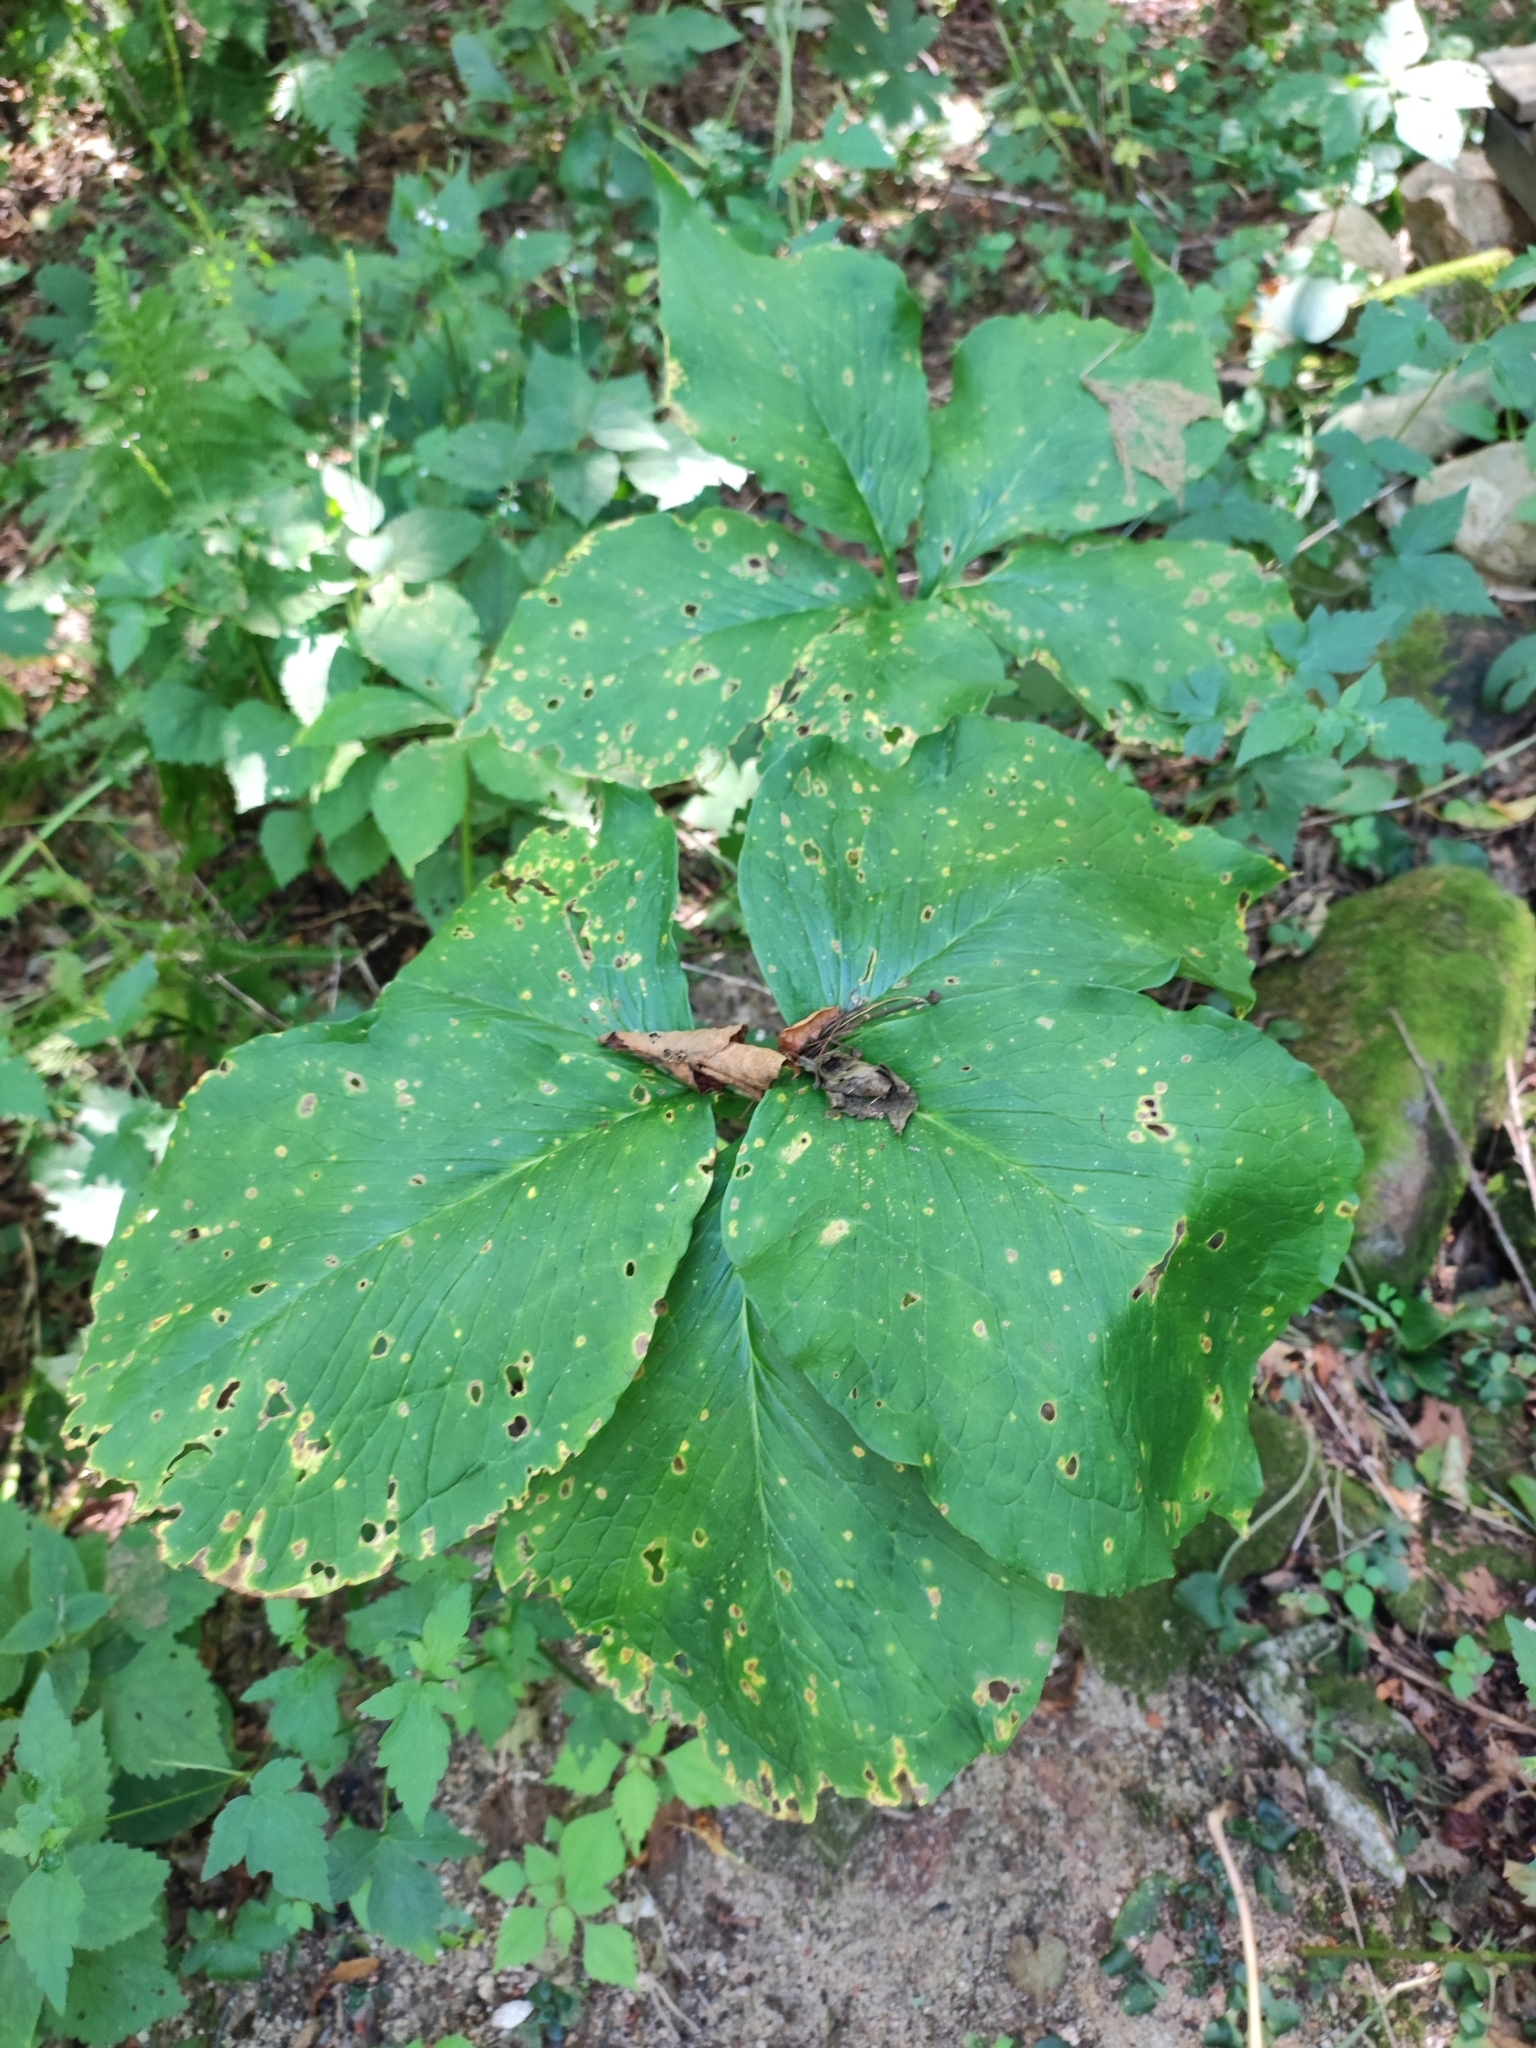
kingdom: Plantae
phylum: Tracheophyta
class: Liliopsida
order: Alismatales
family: Araceae
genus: Arisaema
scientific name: Arisaema amurense
